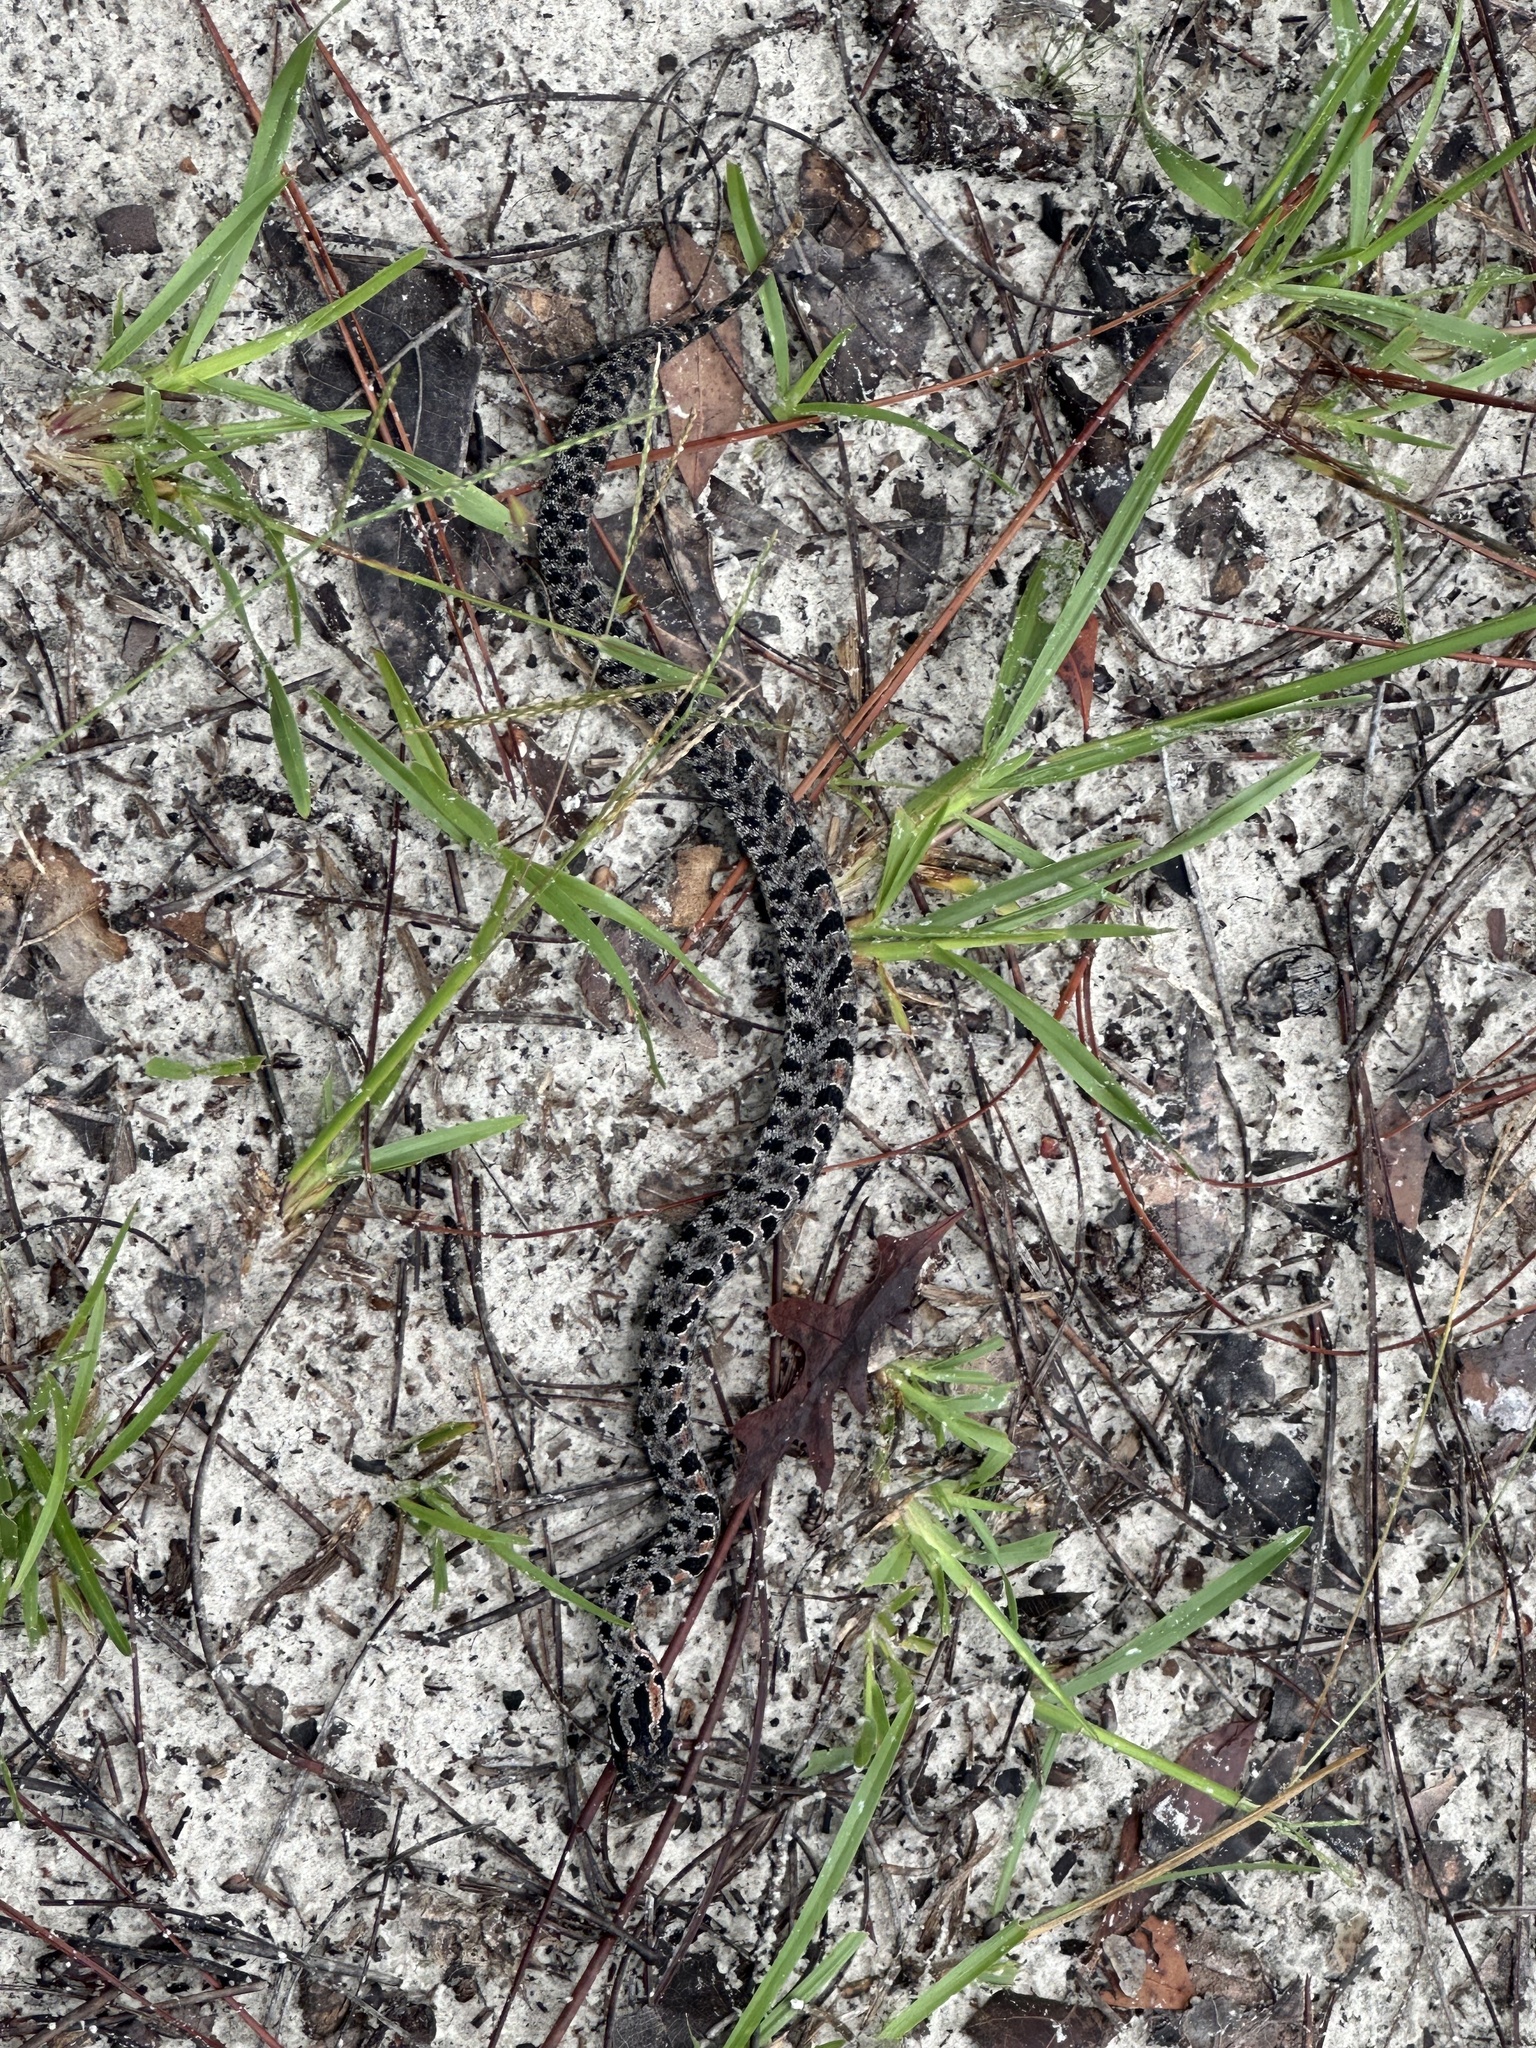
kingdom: Animalia
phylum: Chordata
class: Squamata
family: Viperidae
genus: Sistrurus
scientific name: Sistrurus miliarius
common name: Pygmy rattlesnake
